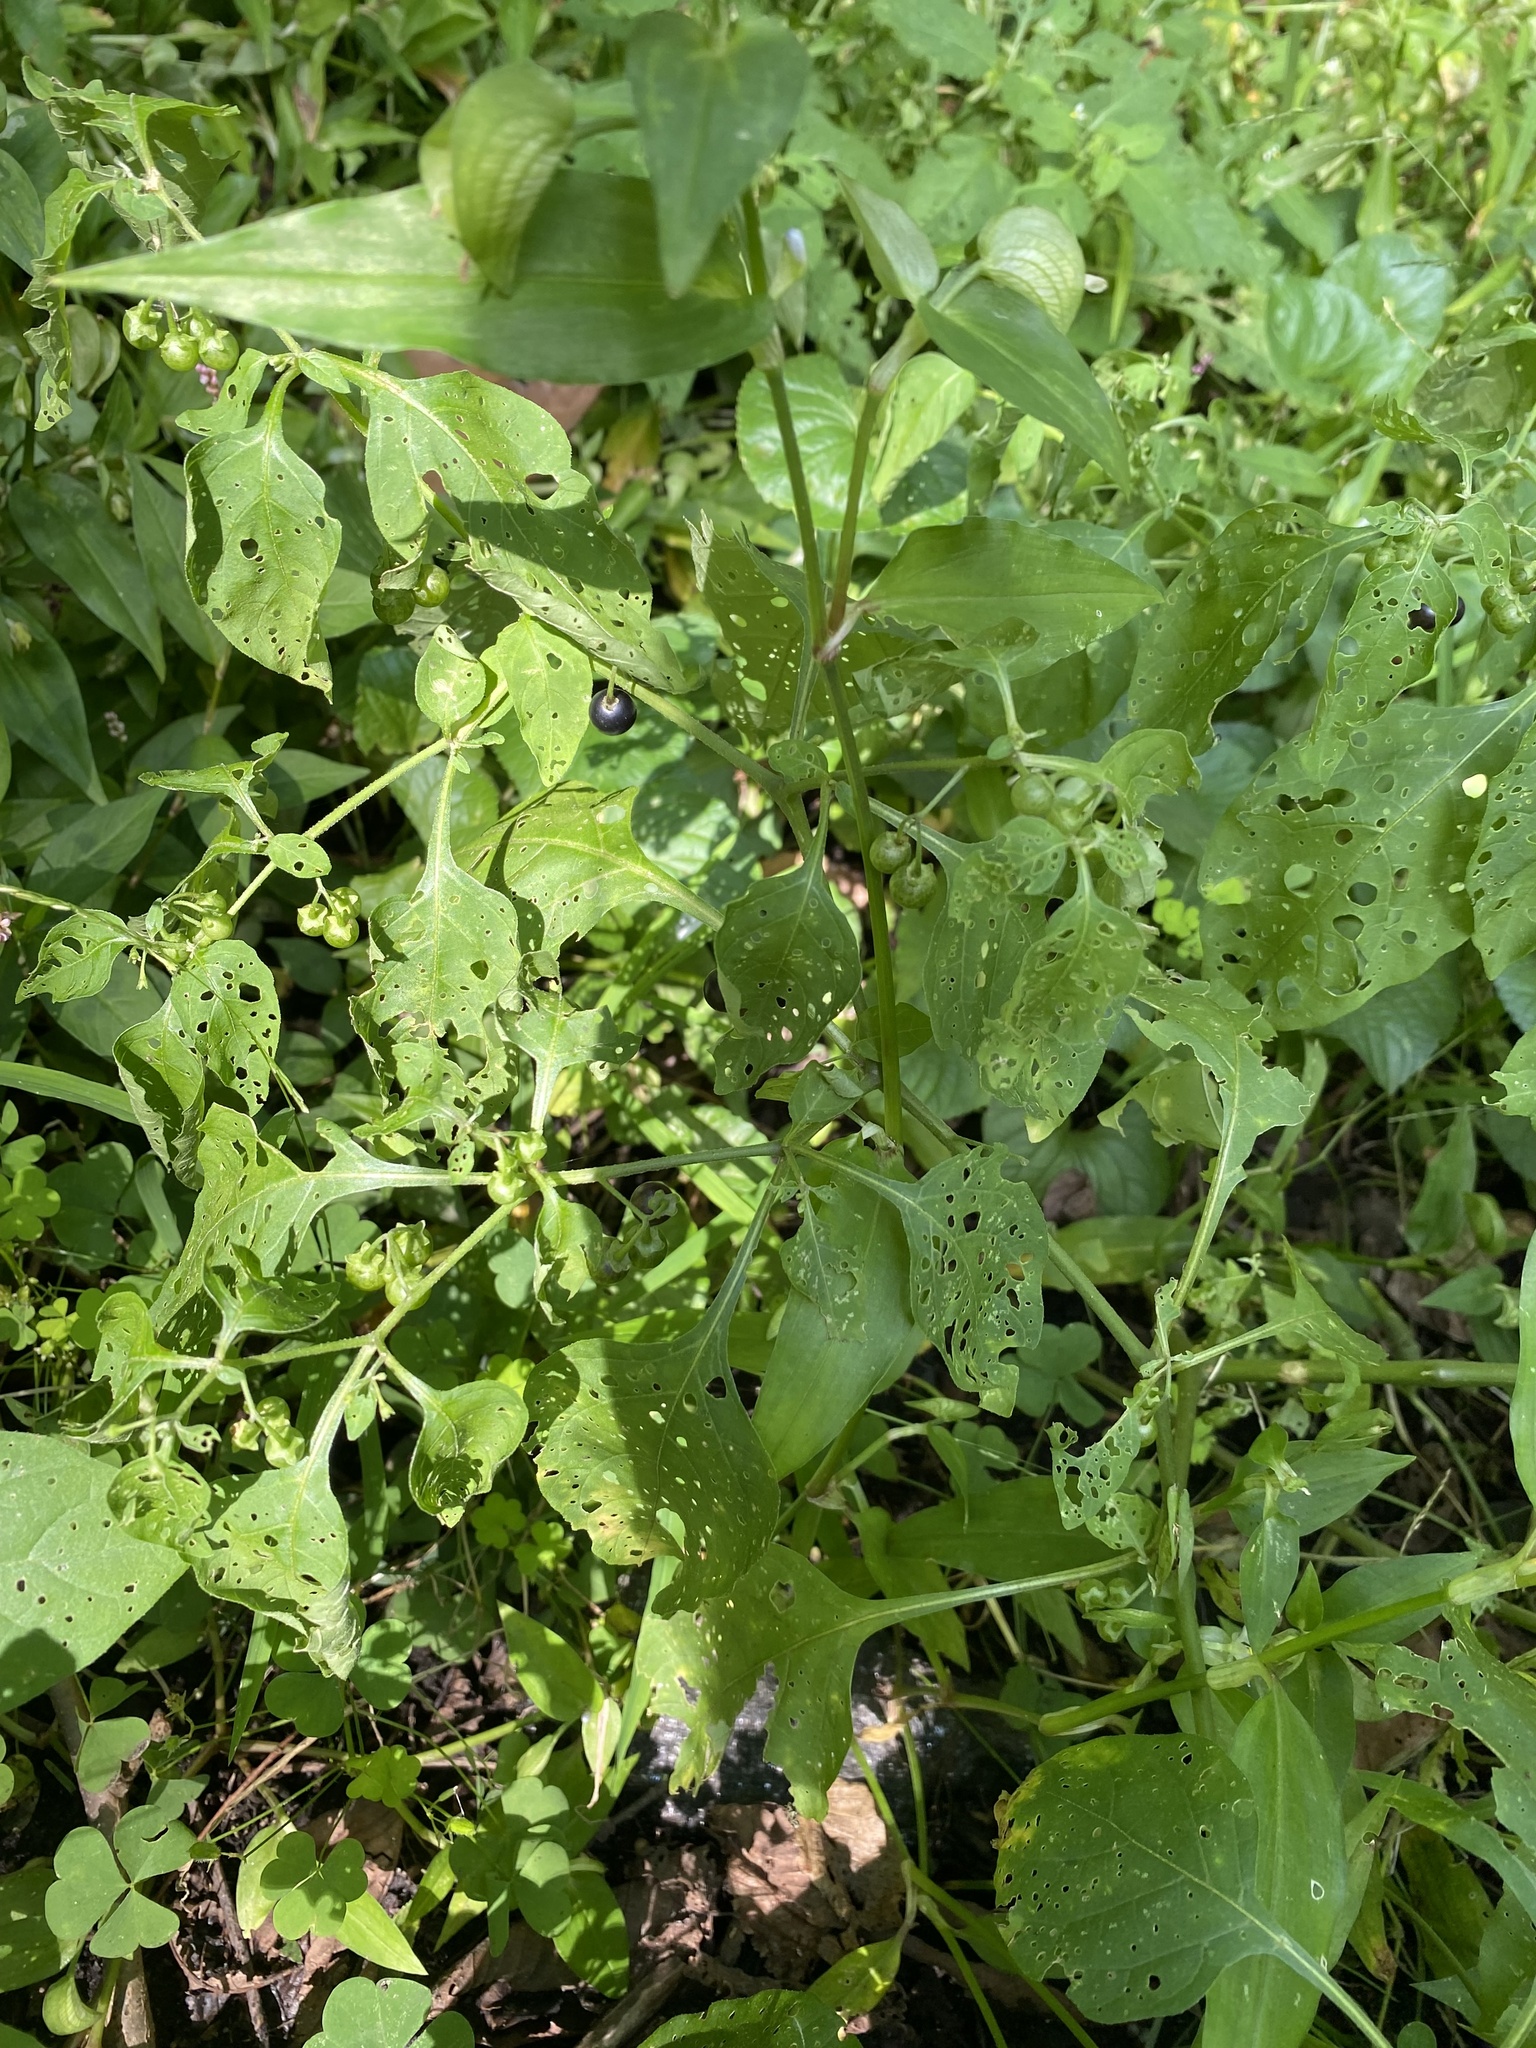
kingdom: Plantae
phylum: Tracheophyta
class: Magnoliopsida
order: Solanales
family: Solanaceae
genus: Solanum
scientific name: Solanum emulans
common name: Eastern black nightshade
